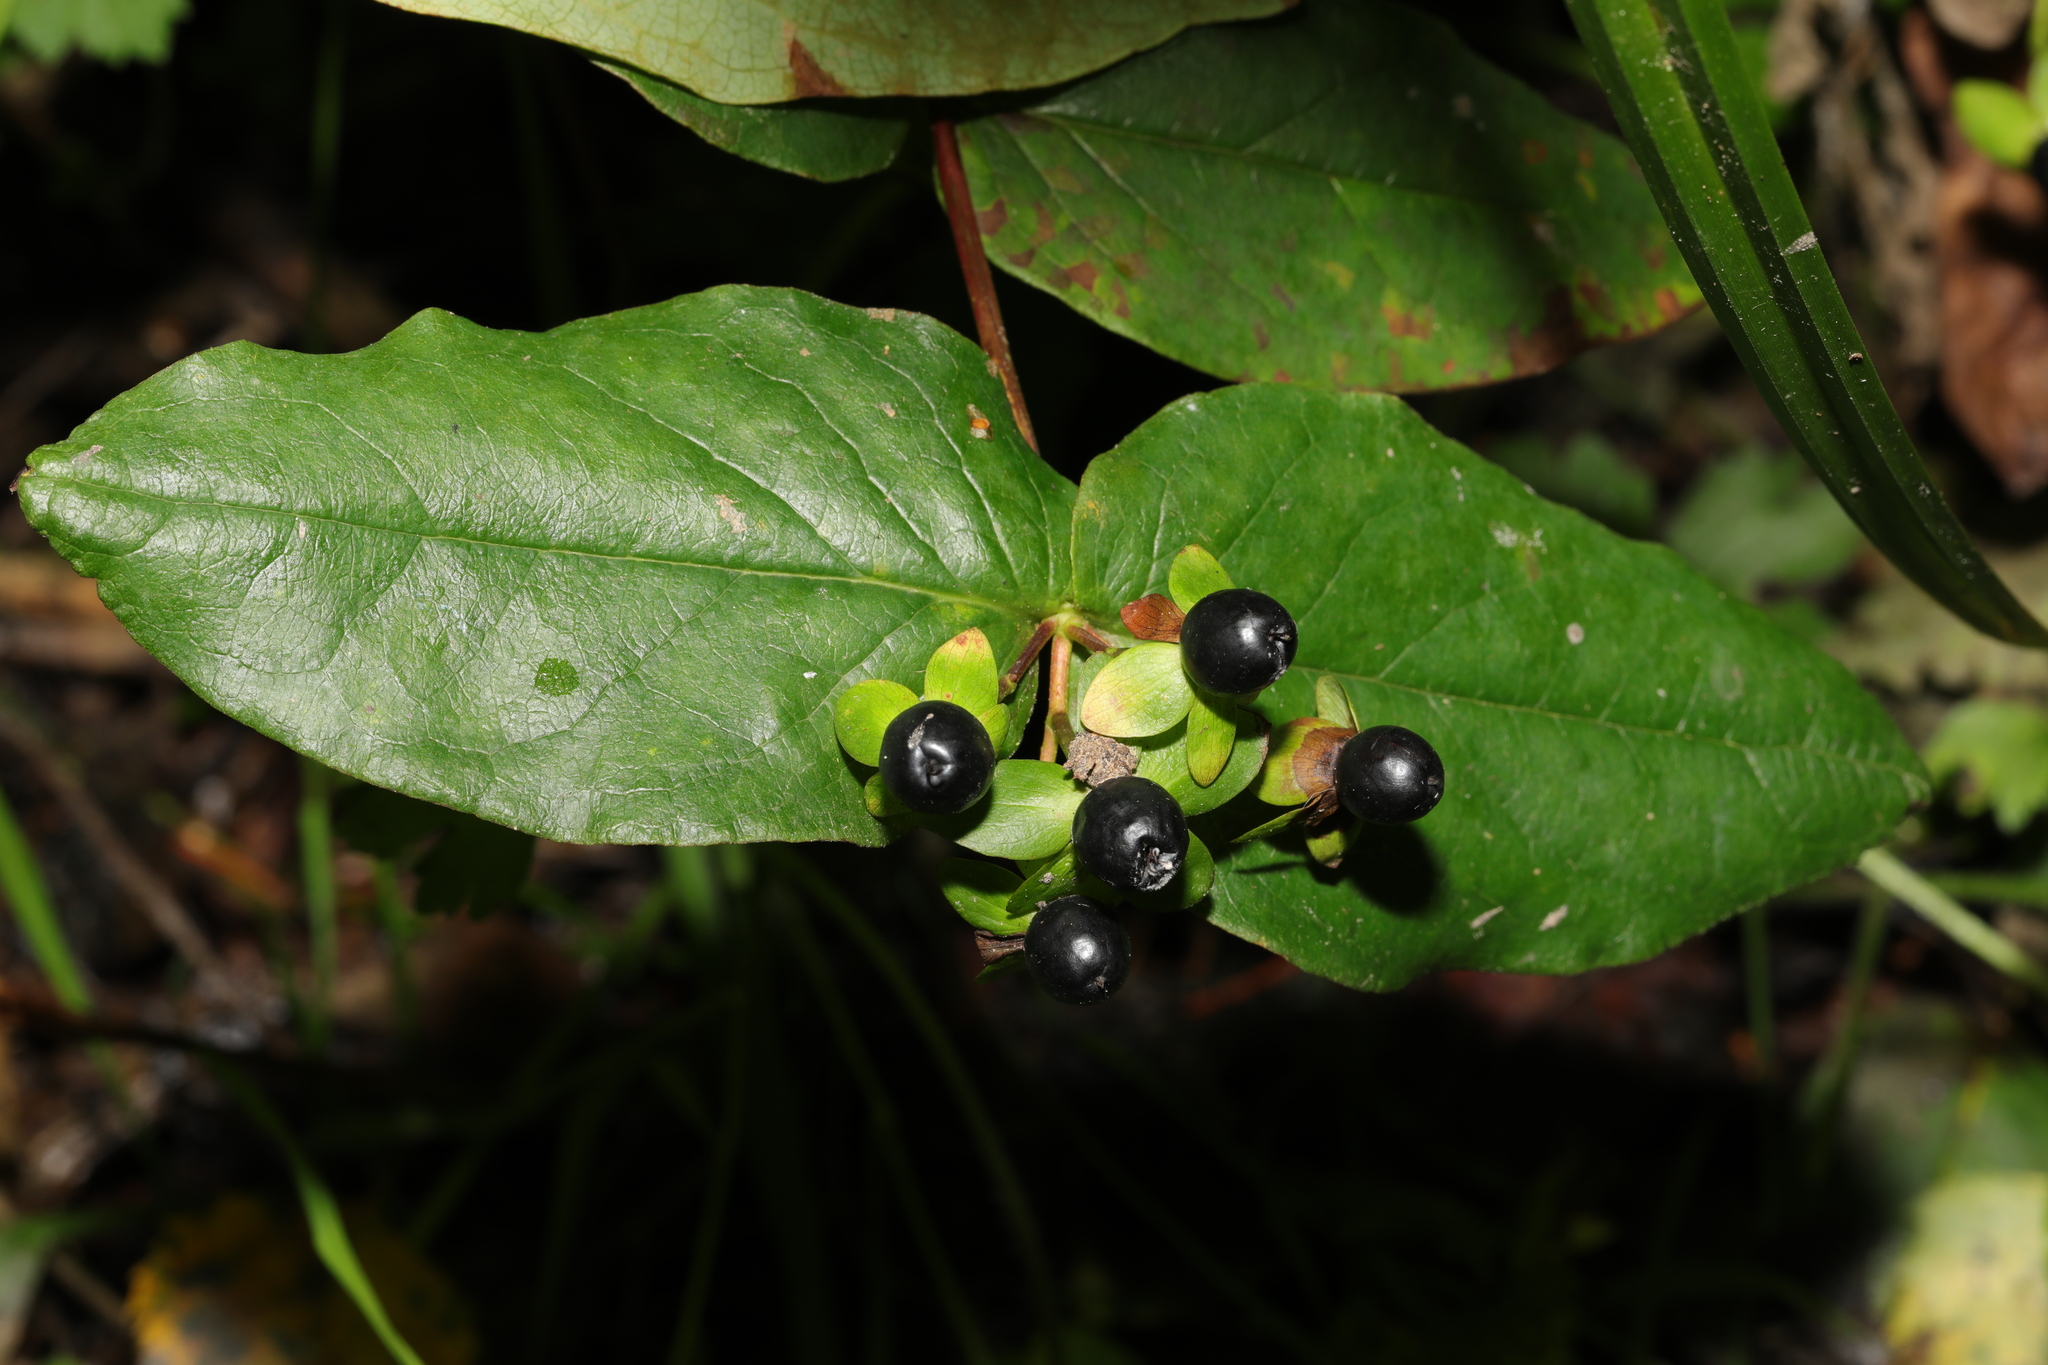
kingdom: Plantae
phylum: Tracheophyta
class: Magnoliopsida
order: Malpighiales
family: Hypericaceae
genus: Hypericum
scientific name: Hypericum androsaemum
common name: Sweet-amber
